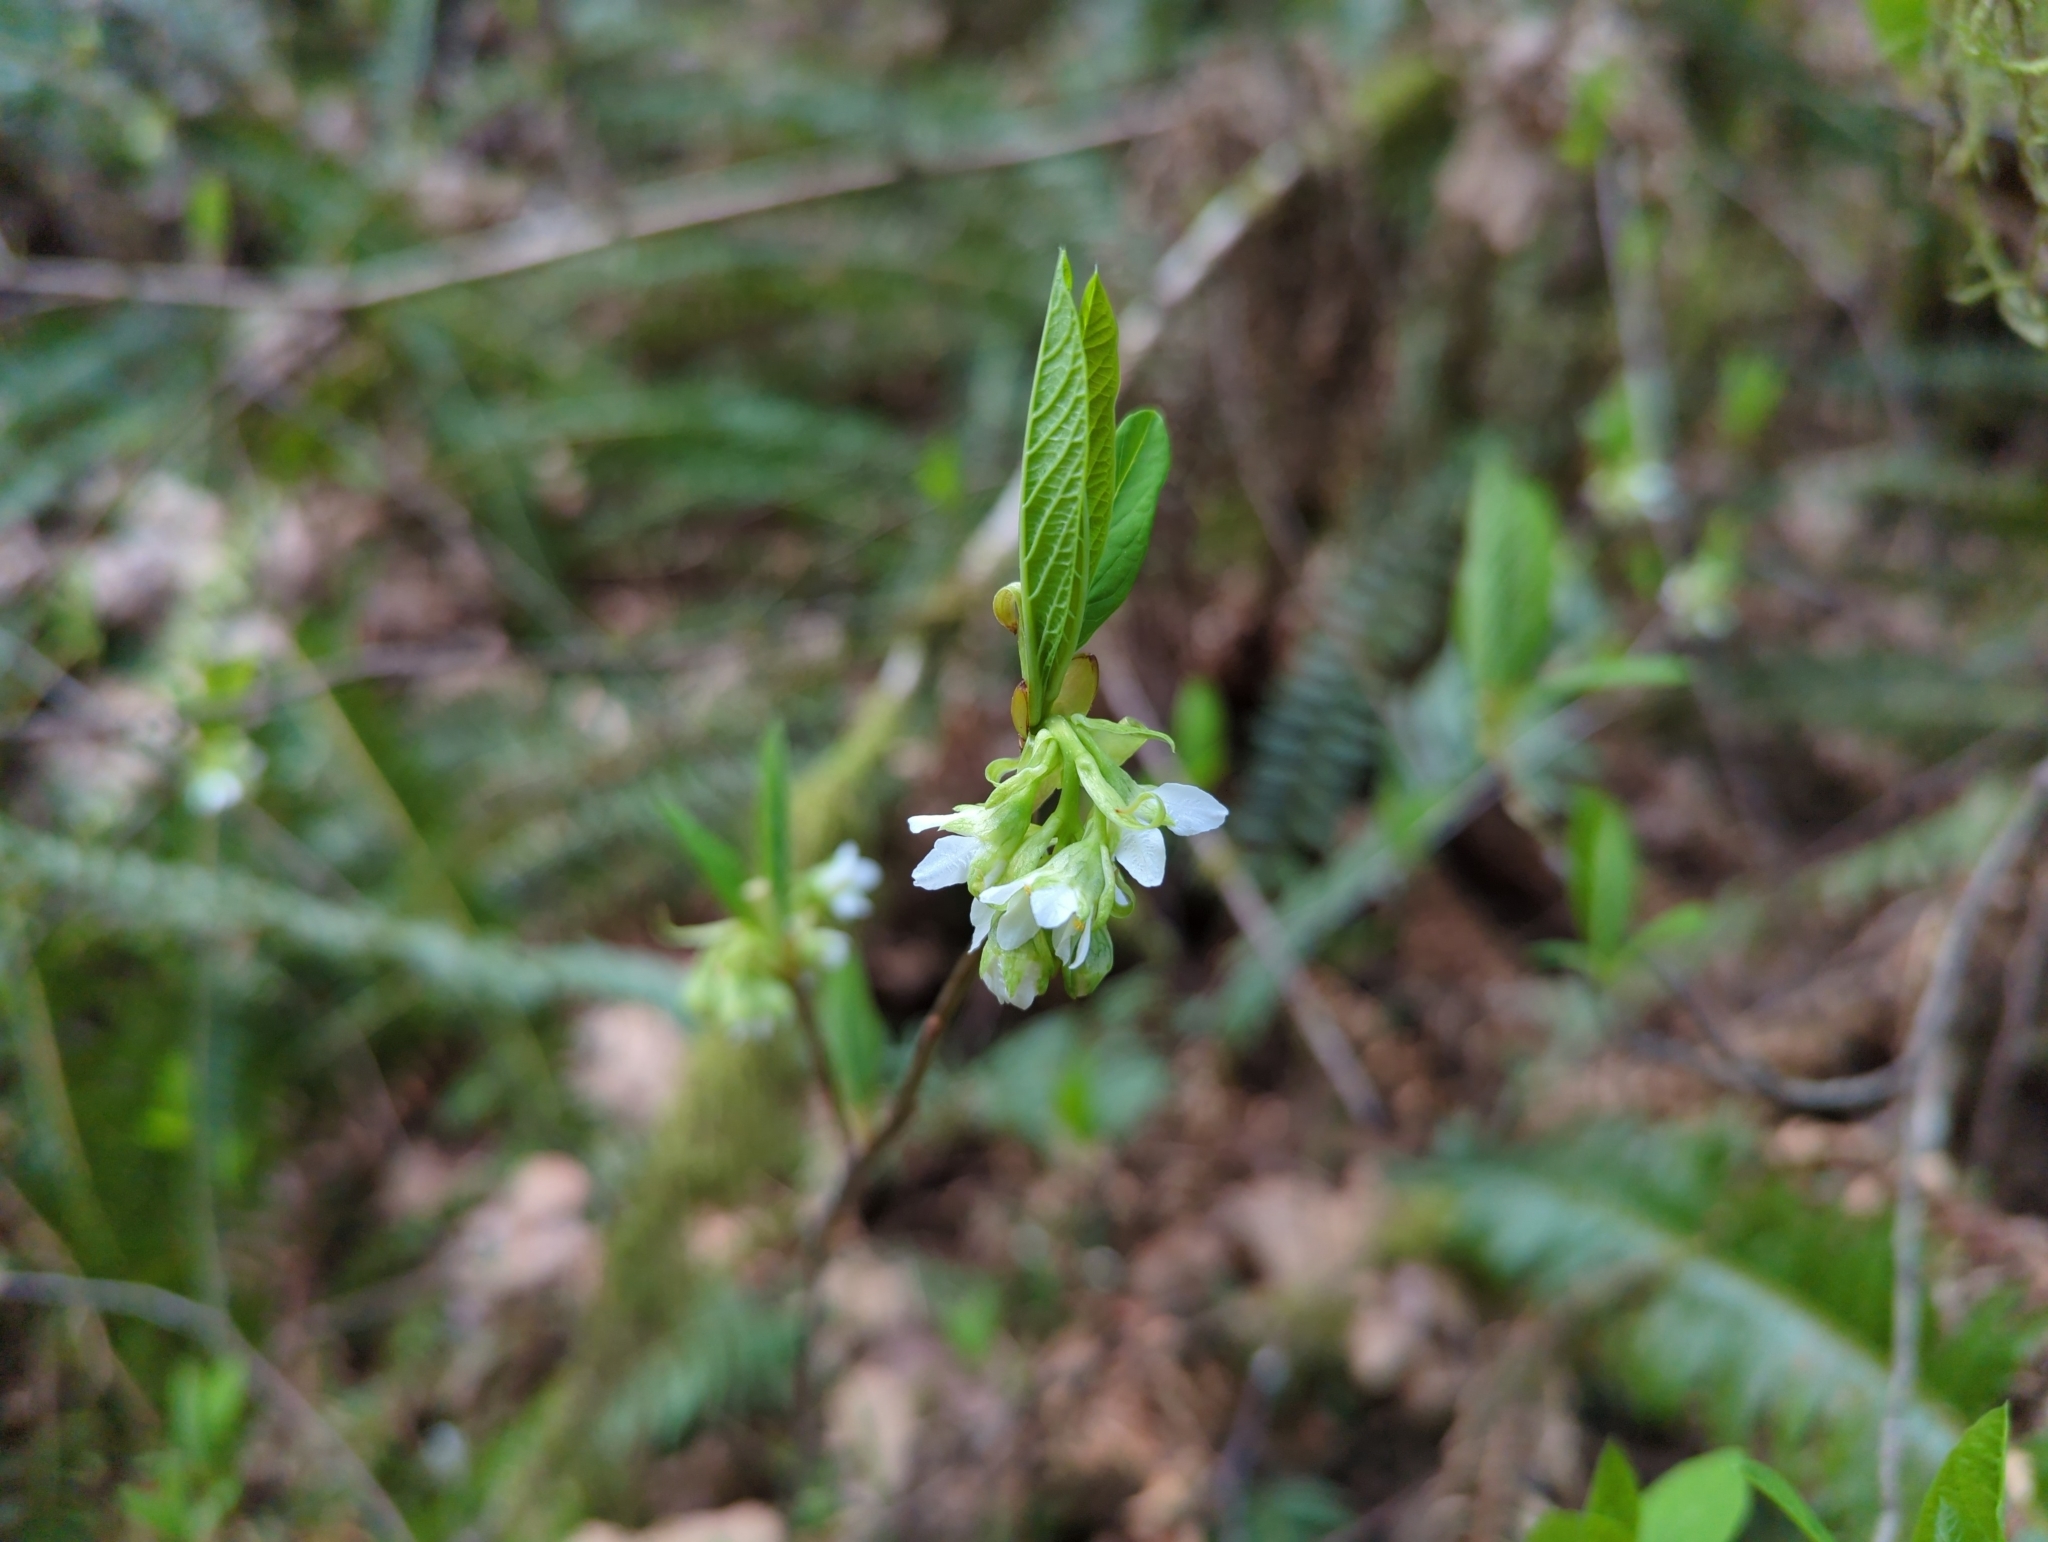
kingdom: Plantae
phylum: Tracheophyta
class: Magnoliopsida
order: Rosales
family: Rosaceae
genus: Oemleria
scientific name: Oemleria cerasiformis
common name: Osoberry
